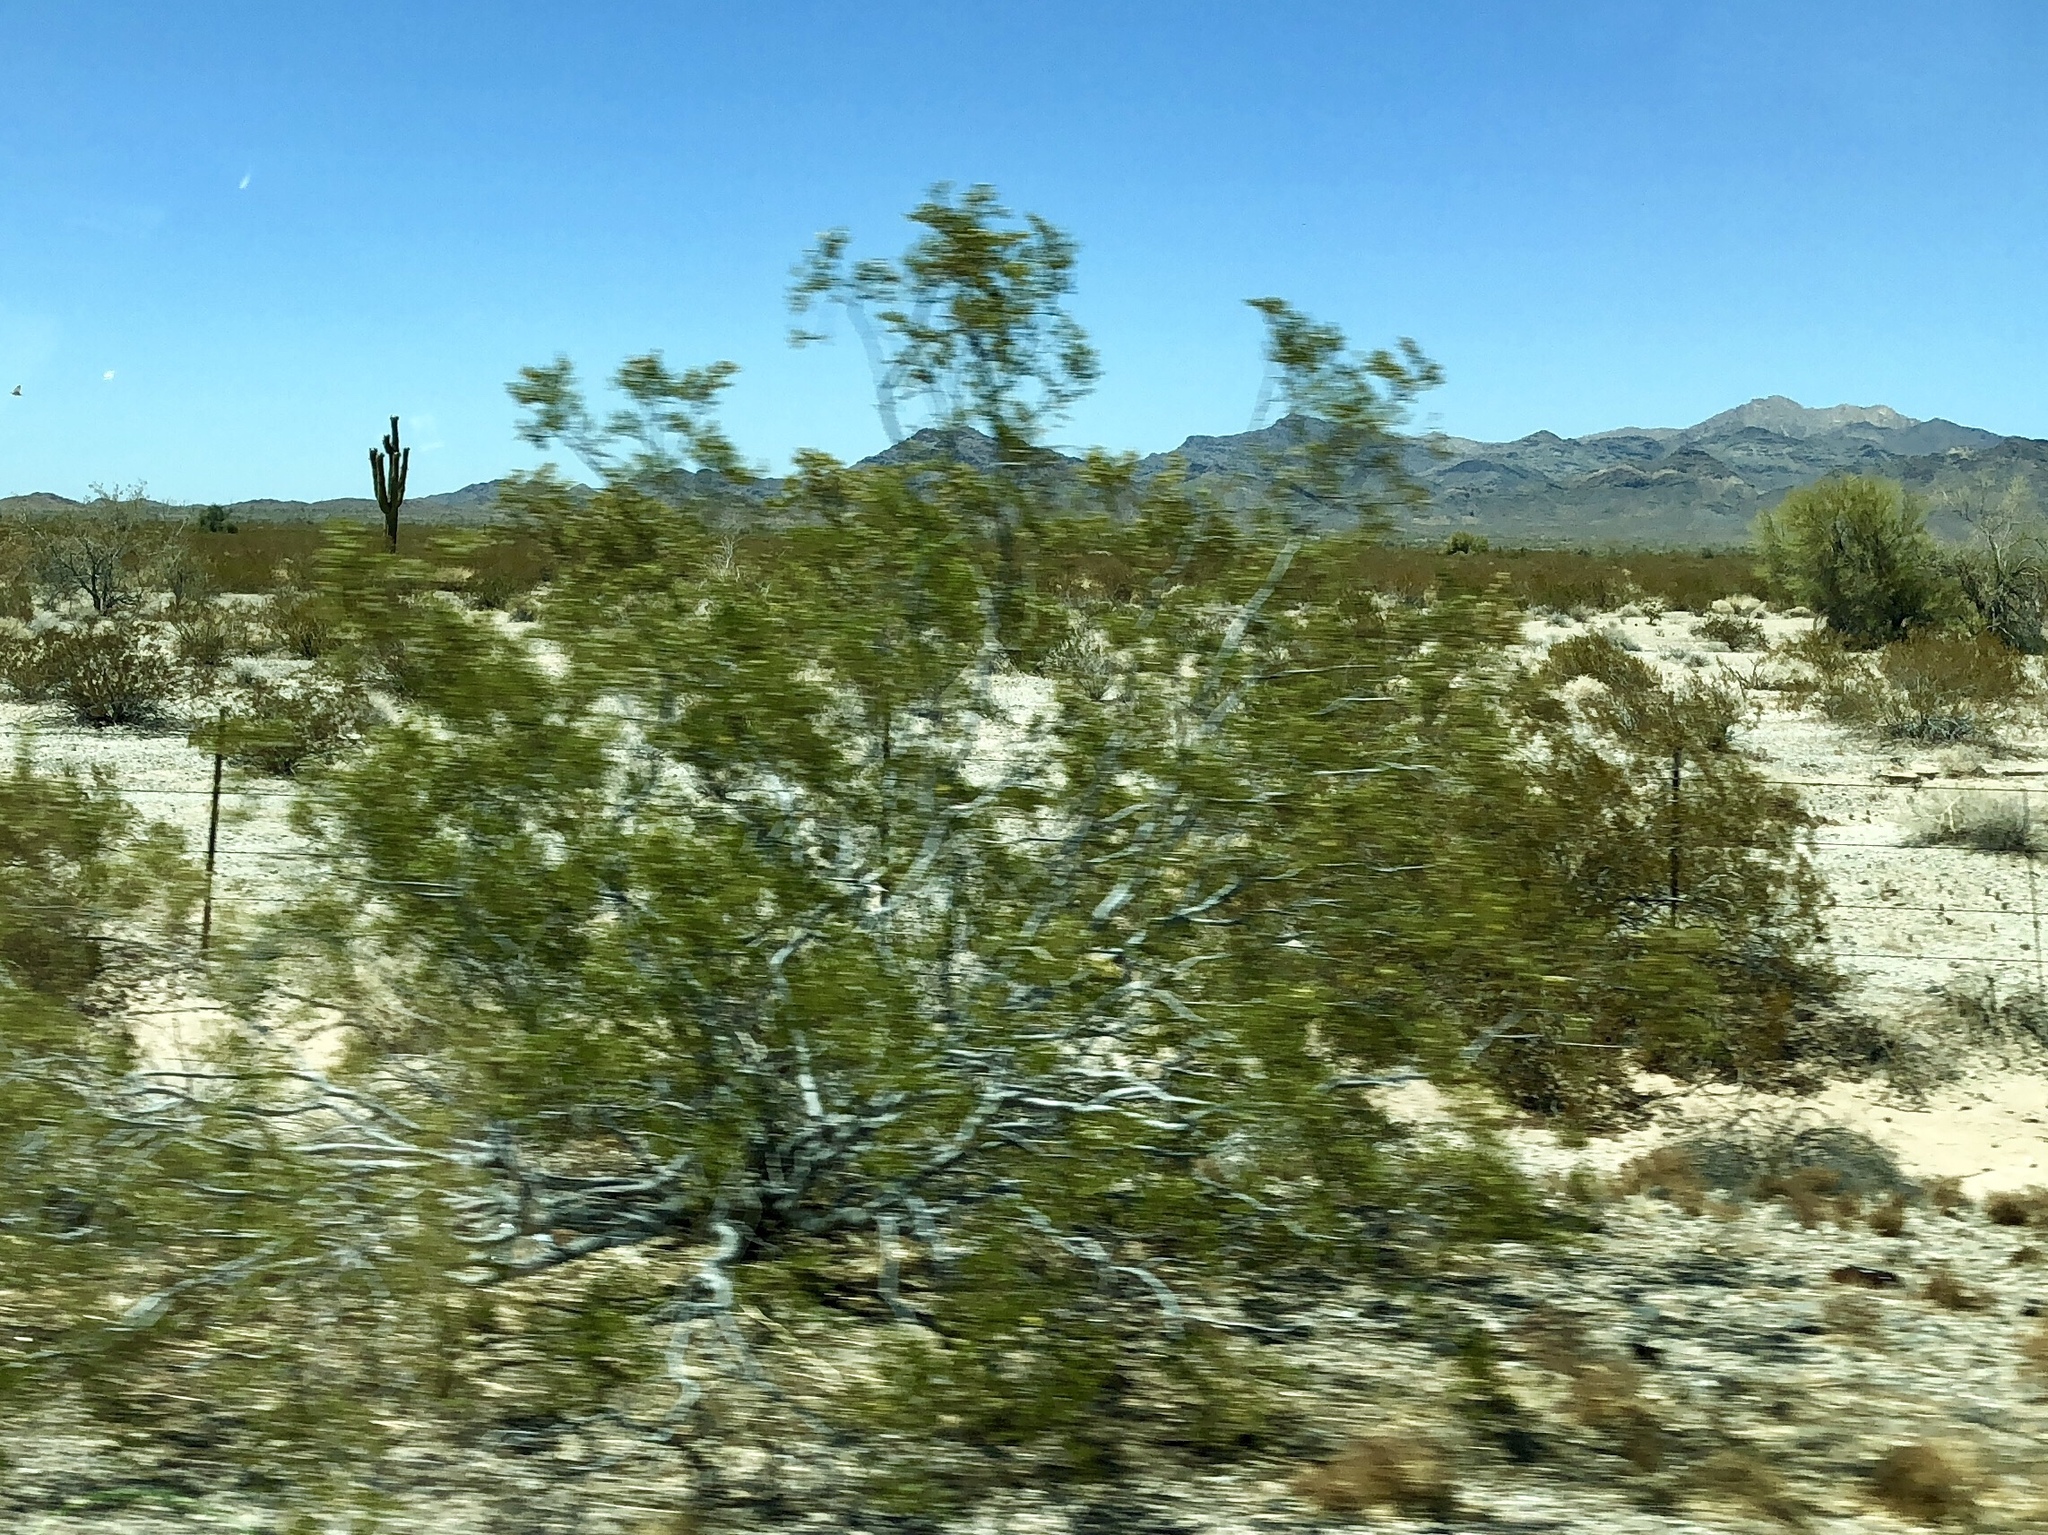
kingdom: Plantae
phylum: Tracheophyta
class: Magnoliopsida
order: Zygophyllales
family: Zygophyllaceae
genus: Larrea
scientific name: Larrea tridentata
